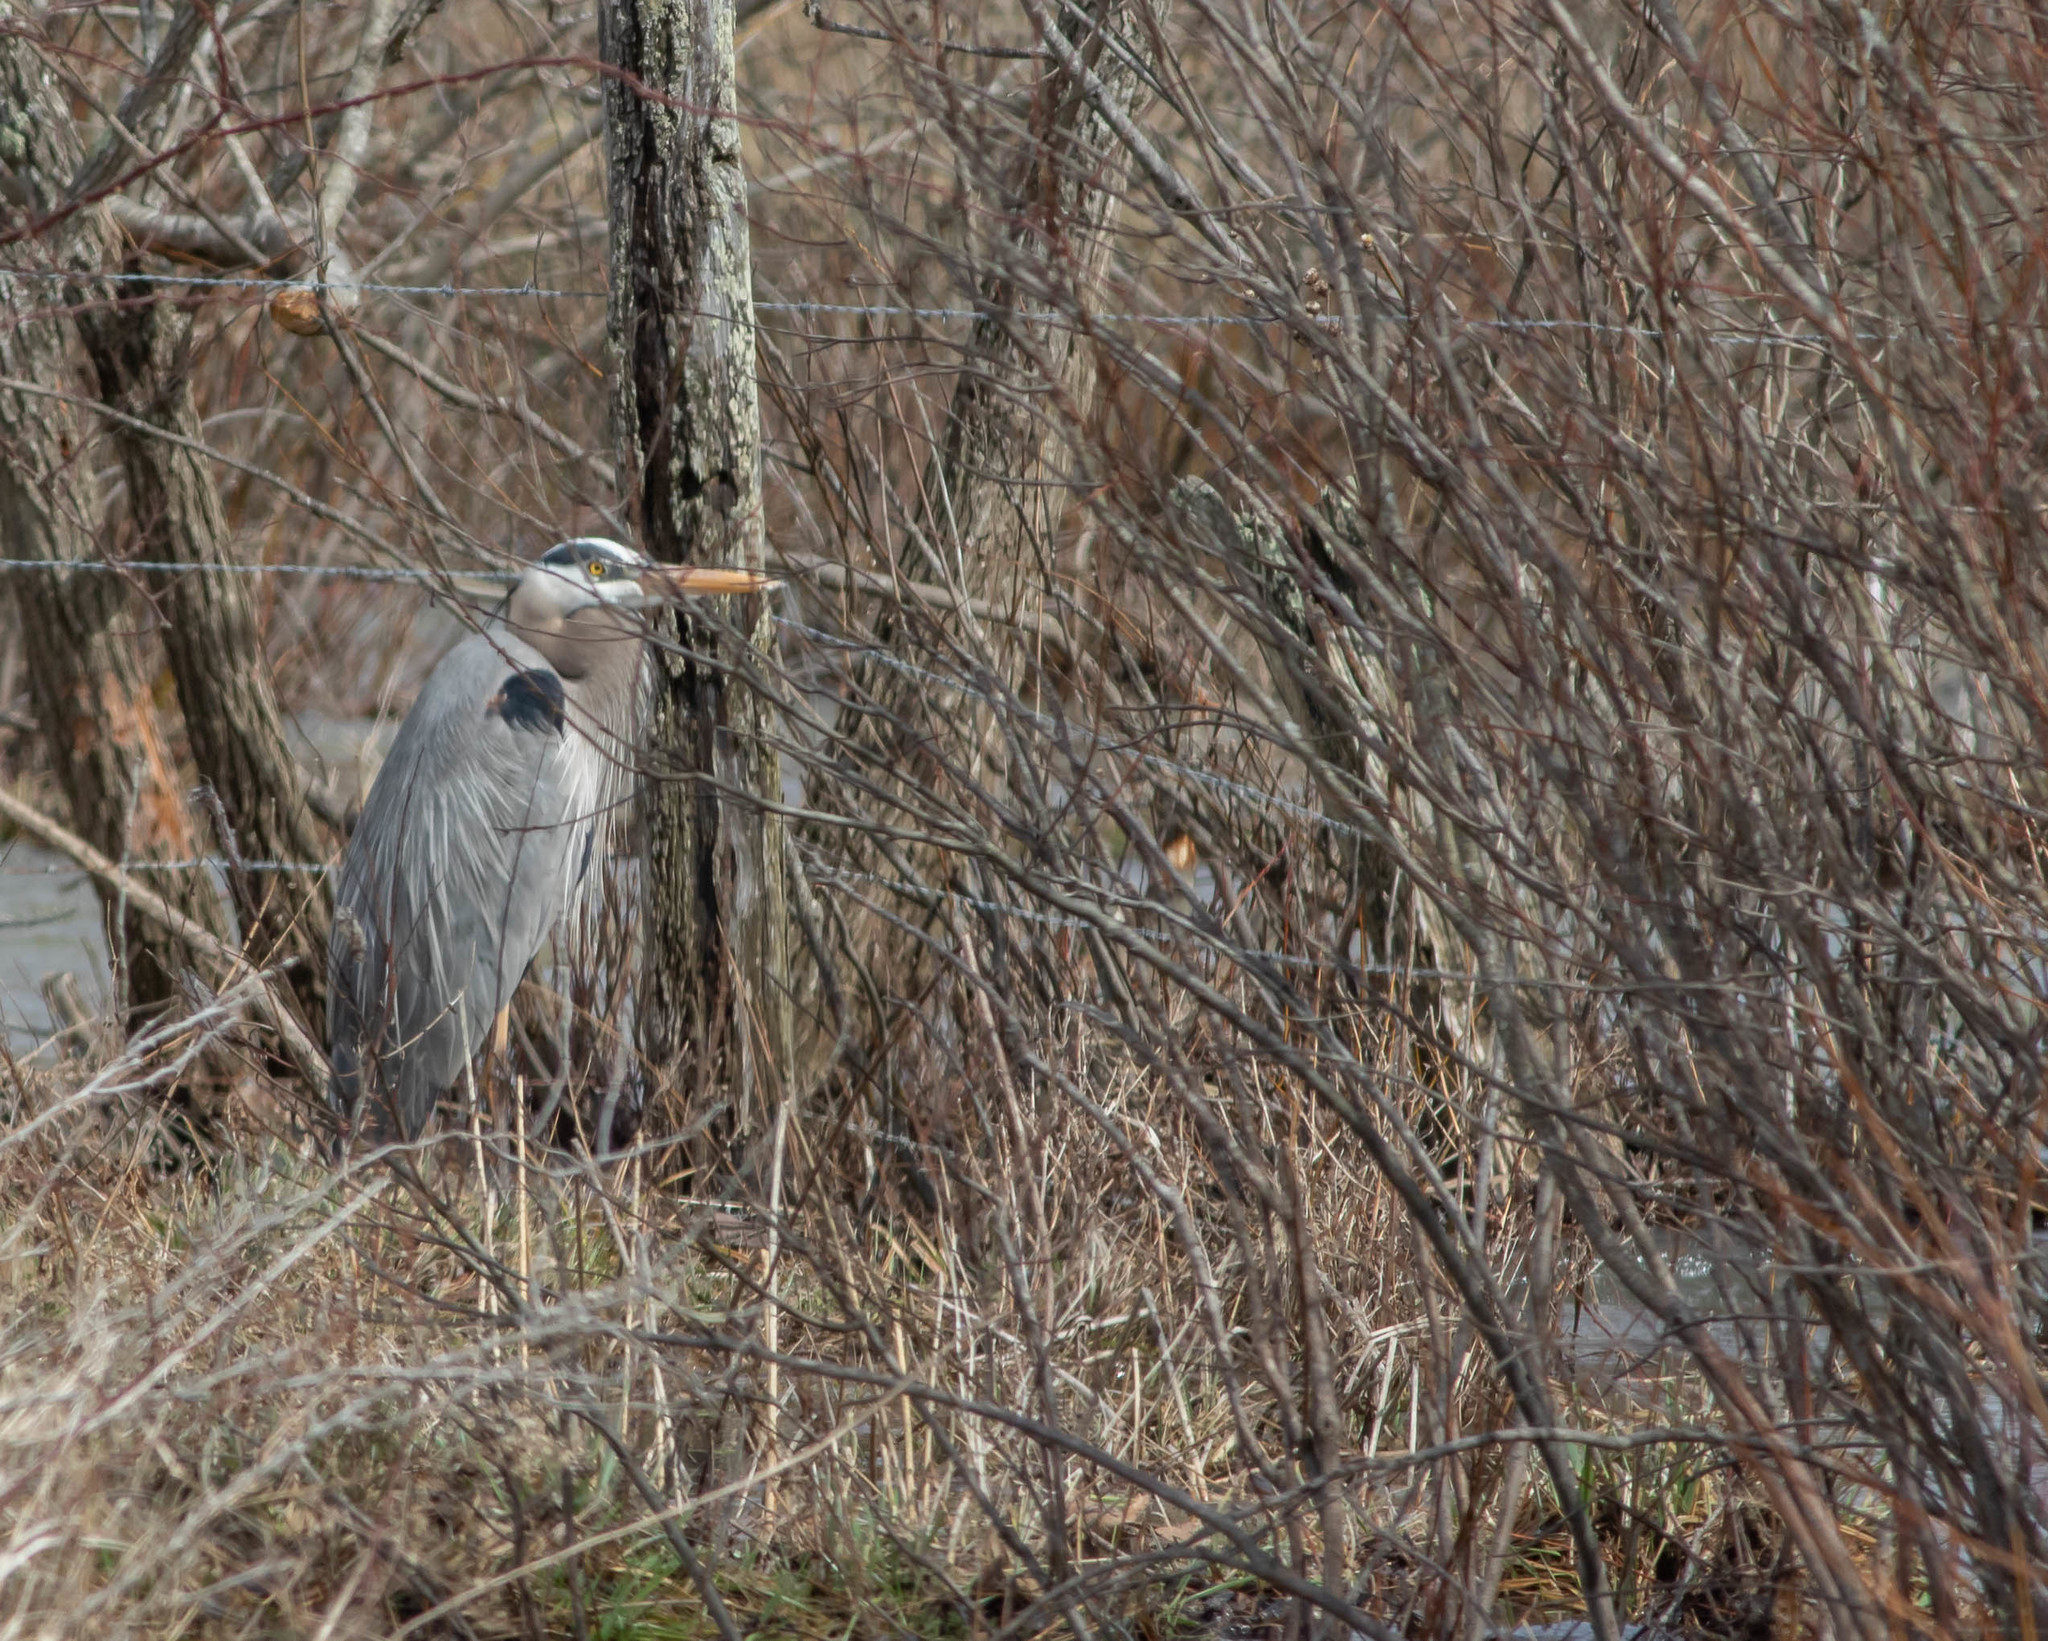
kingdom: Animalia
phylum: Chordata
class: Aves
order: Pelecaniformes
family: Ardeidae
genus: Ardea
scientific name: Ardea herodias
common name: Great blue heron
